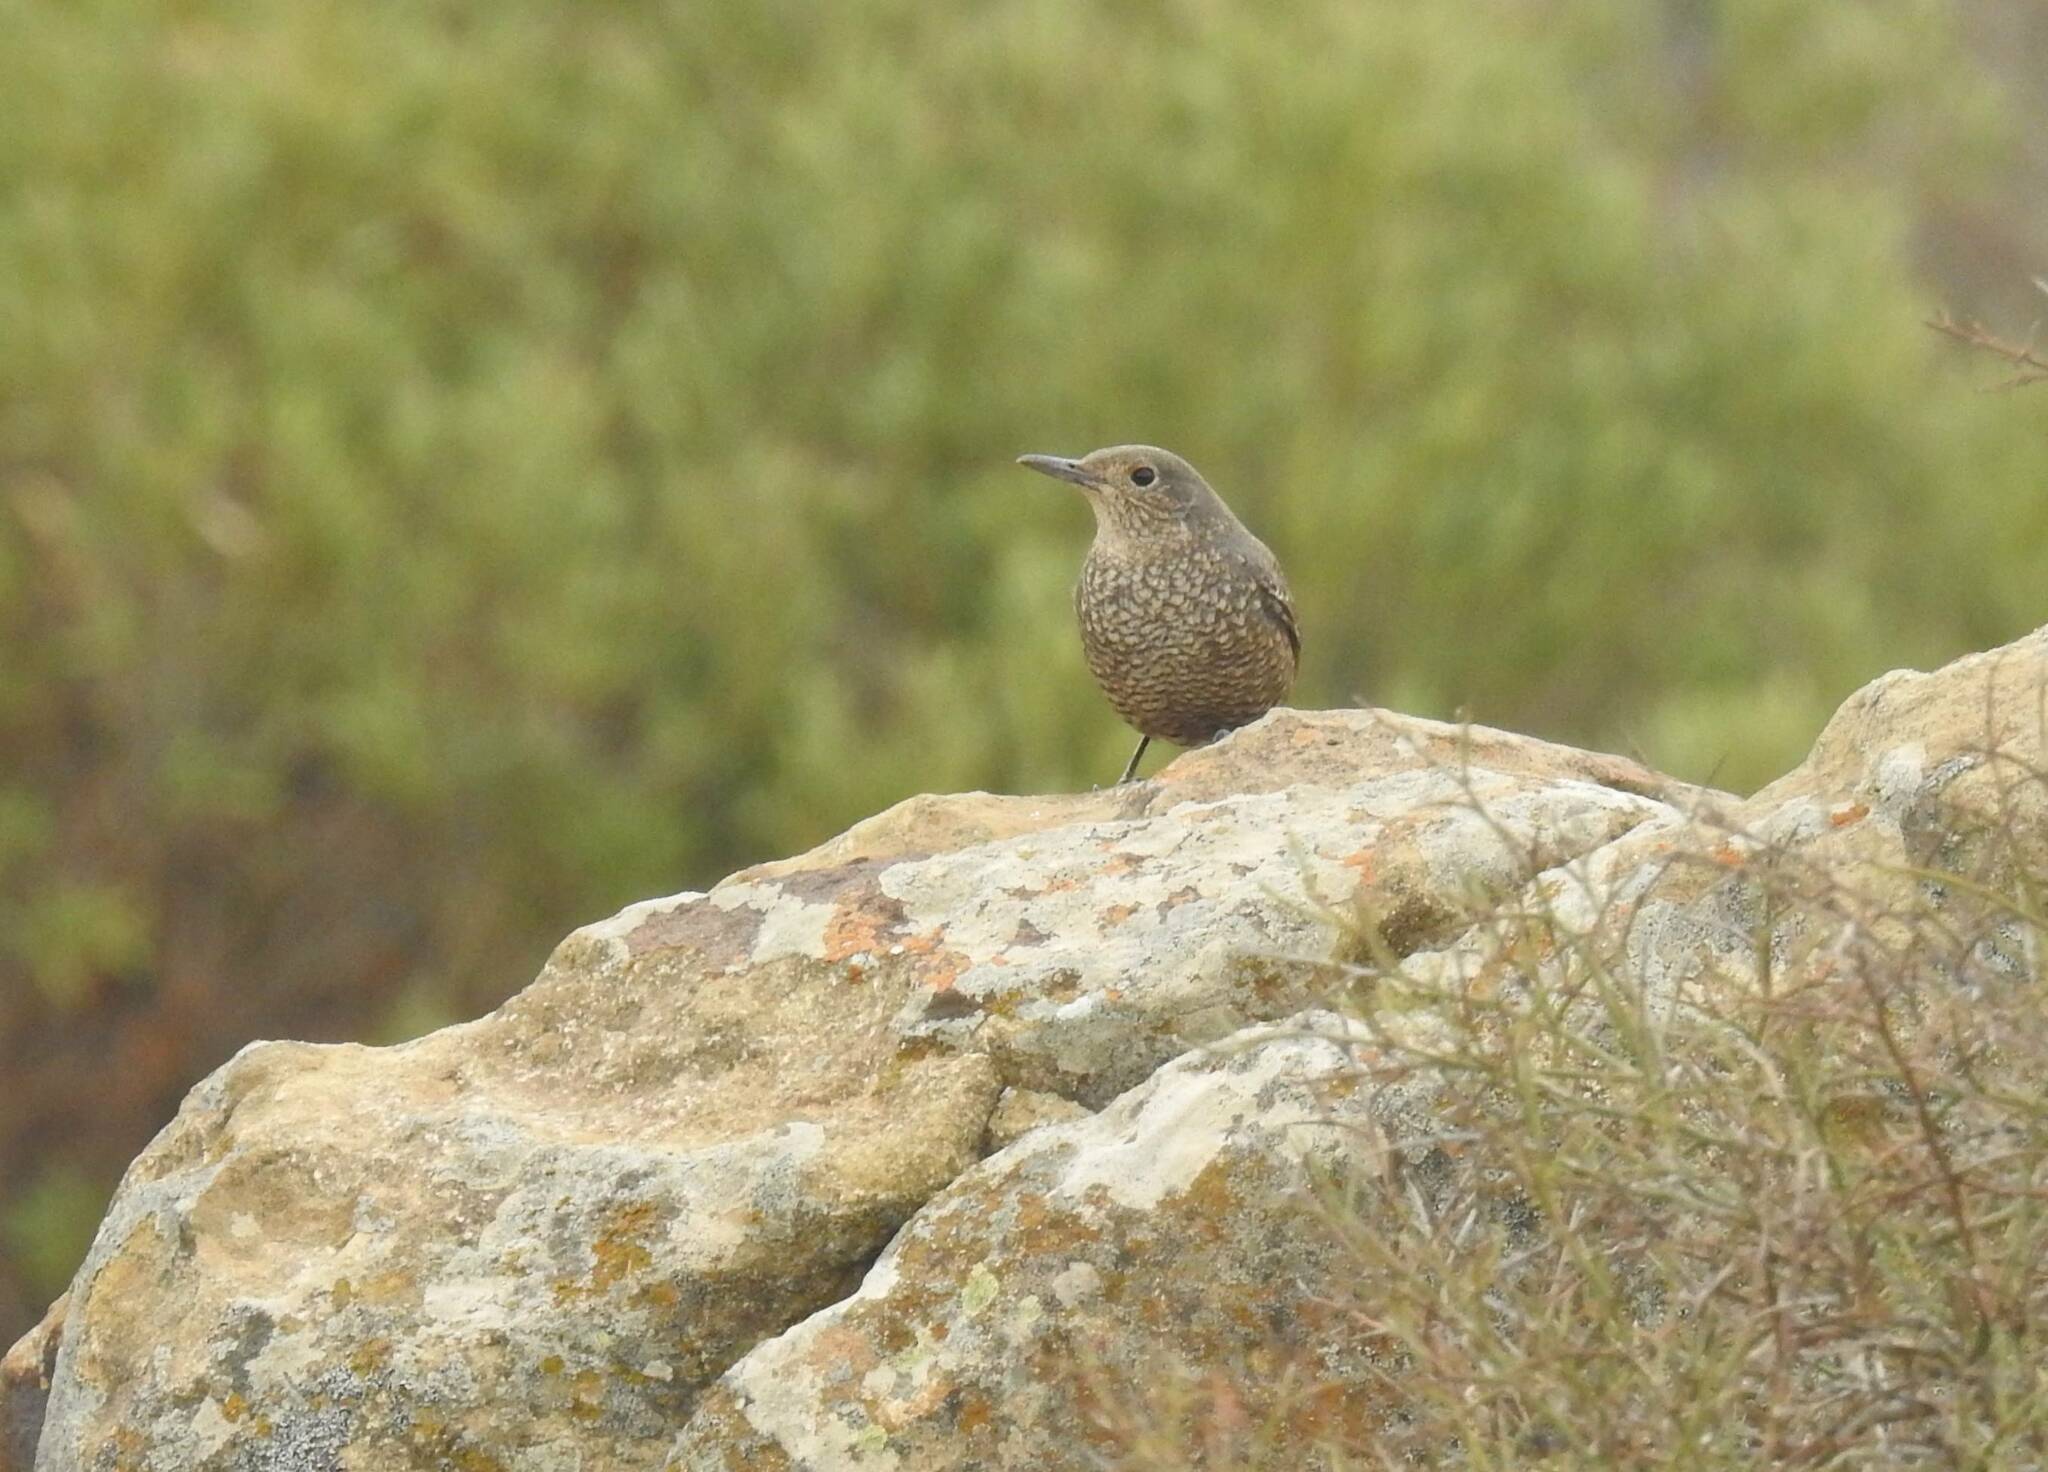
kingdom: Animalia
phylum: Chordata
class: Aves
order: Passeriformes
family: Muscicapidae
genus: Monticola
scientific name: Monticola solitarius
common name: Blue rock thrush
